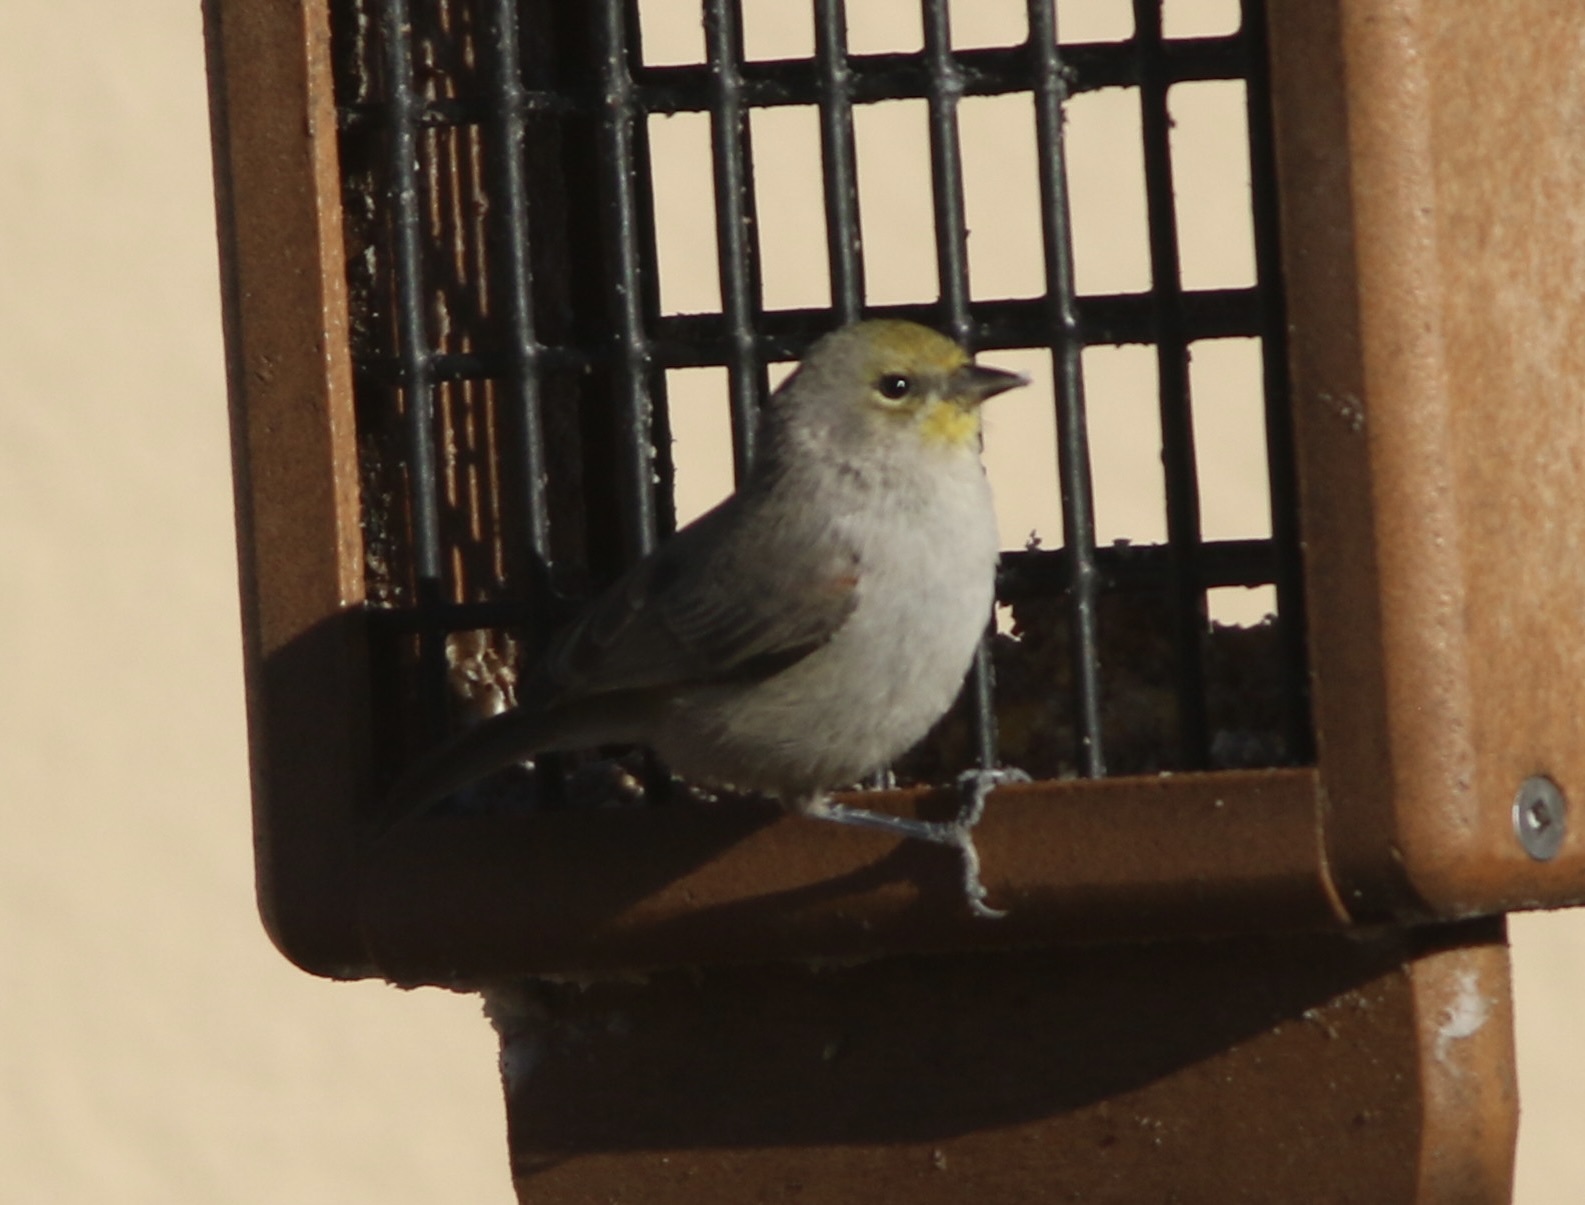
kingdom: Animalia
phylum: Chordata
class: Aves
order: Passeriformes
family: Remizidae
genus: Auriparus
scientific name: Auriparus flaviceps
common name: Verdin
